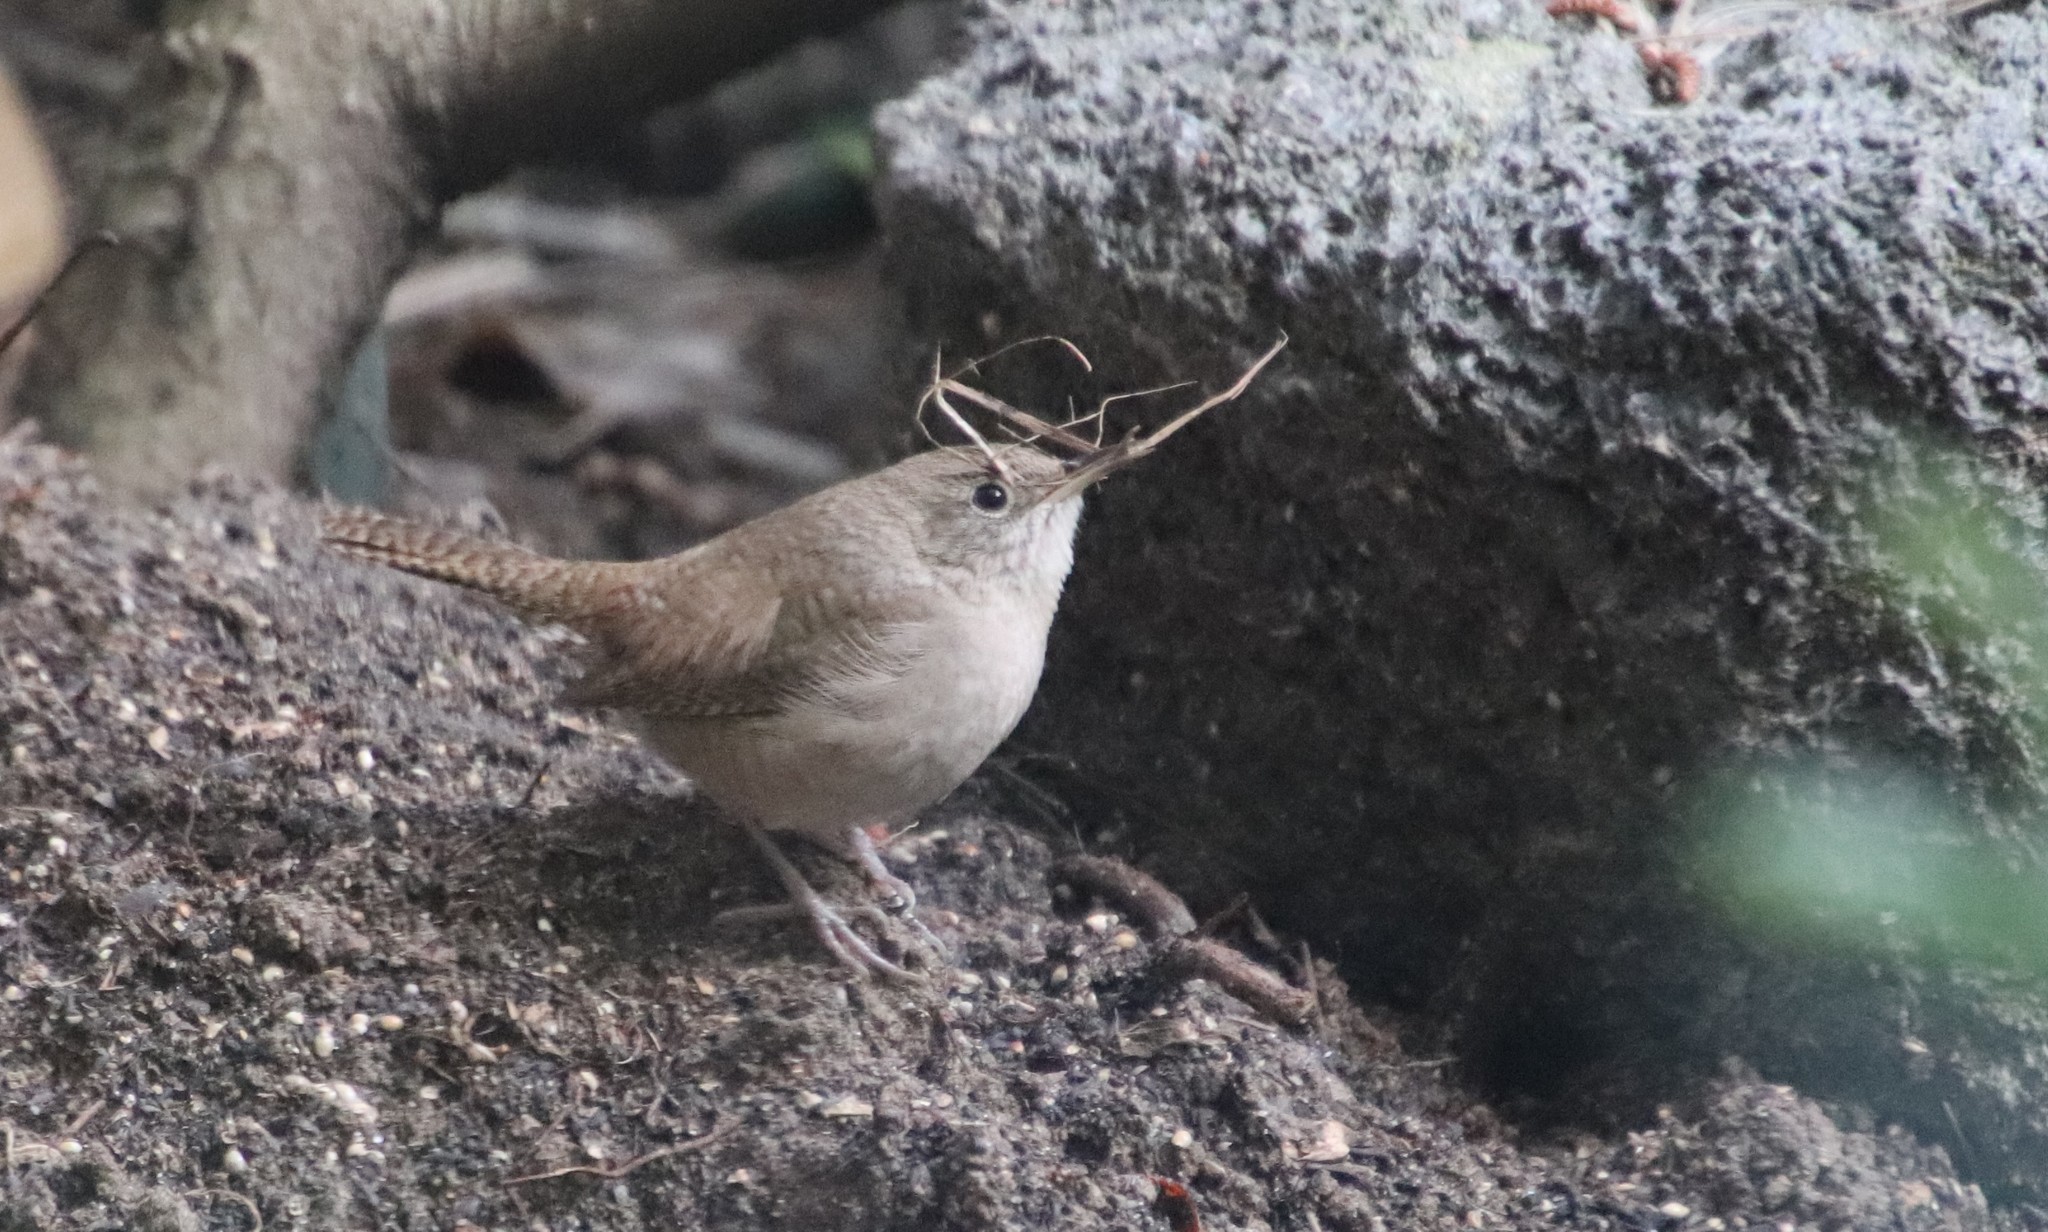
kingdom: Animalia
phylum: Chordata
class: Aves
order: Passeriformes
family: Troglodytidae
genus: Troglodytes
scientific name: Troglodytes aedon
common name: House wren
